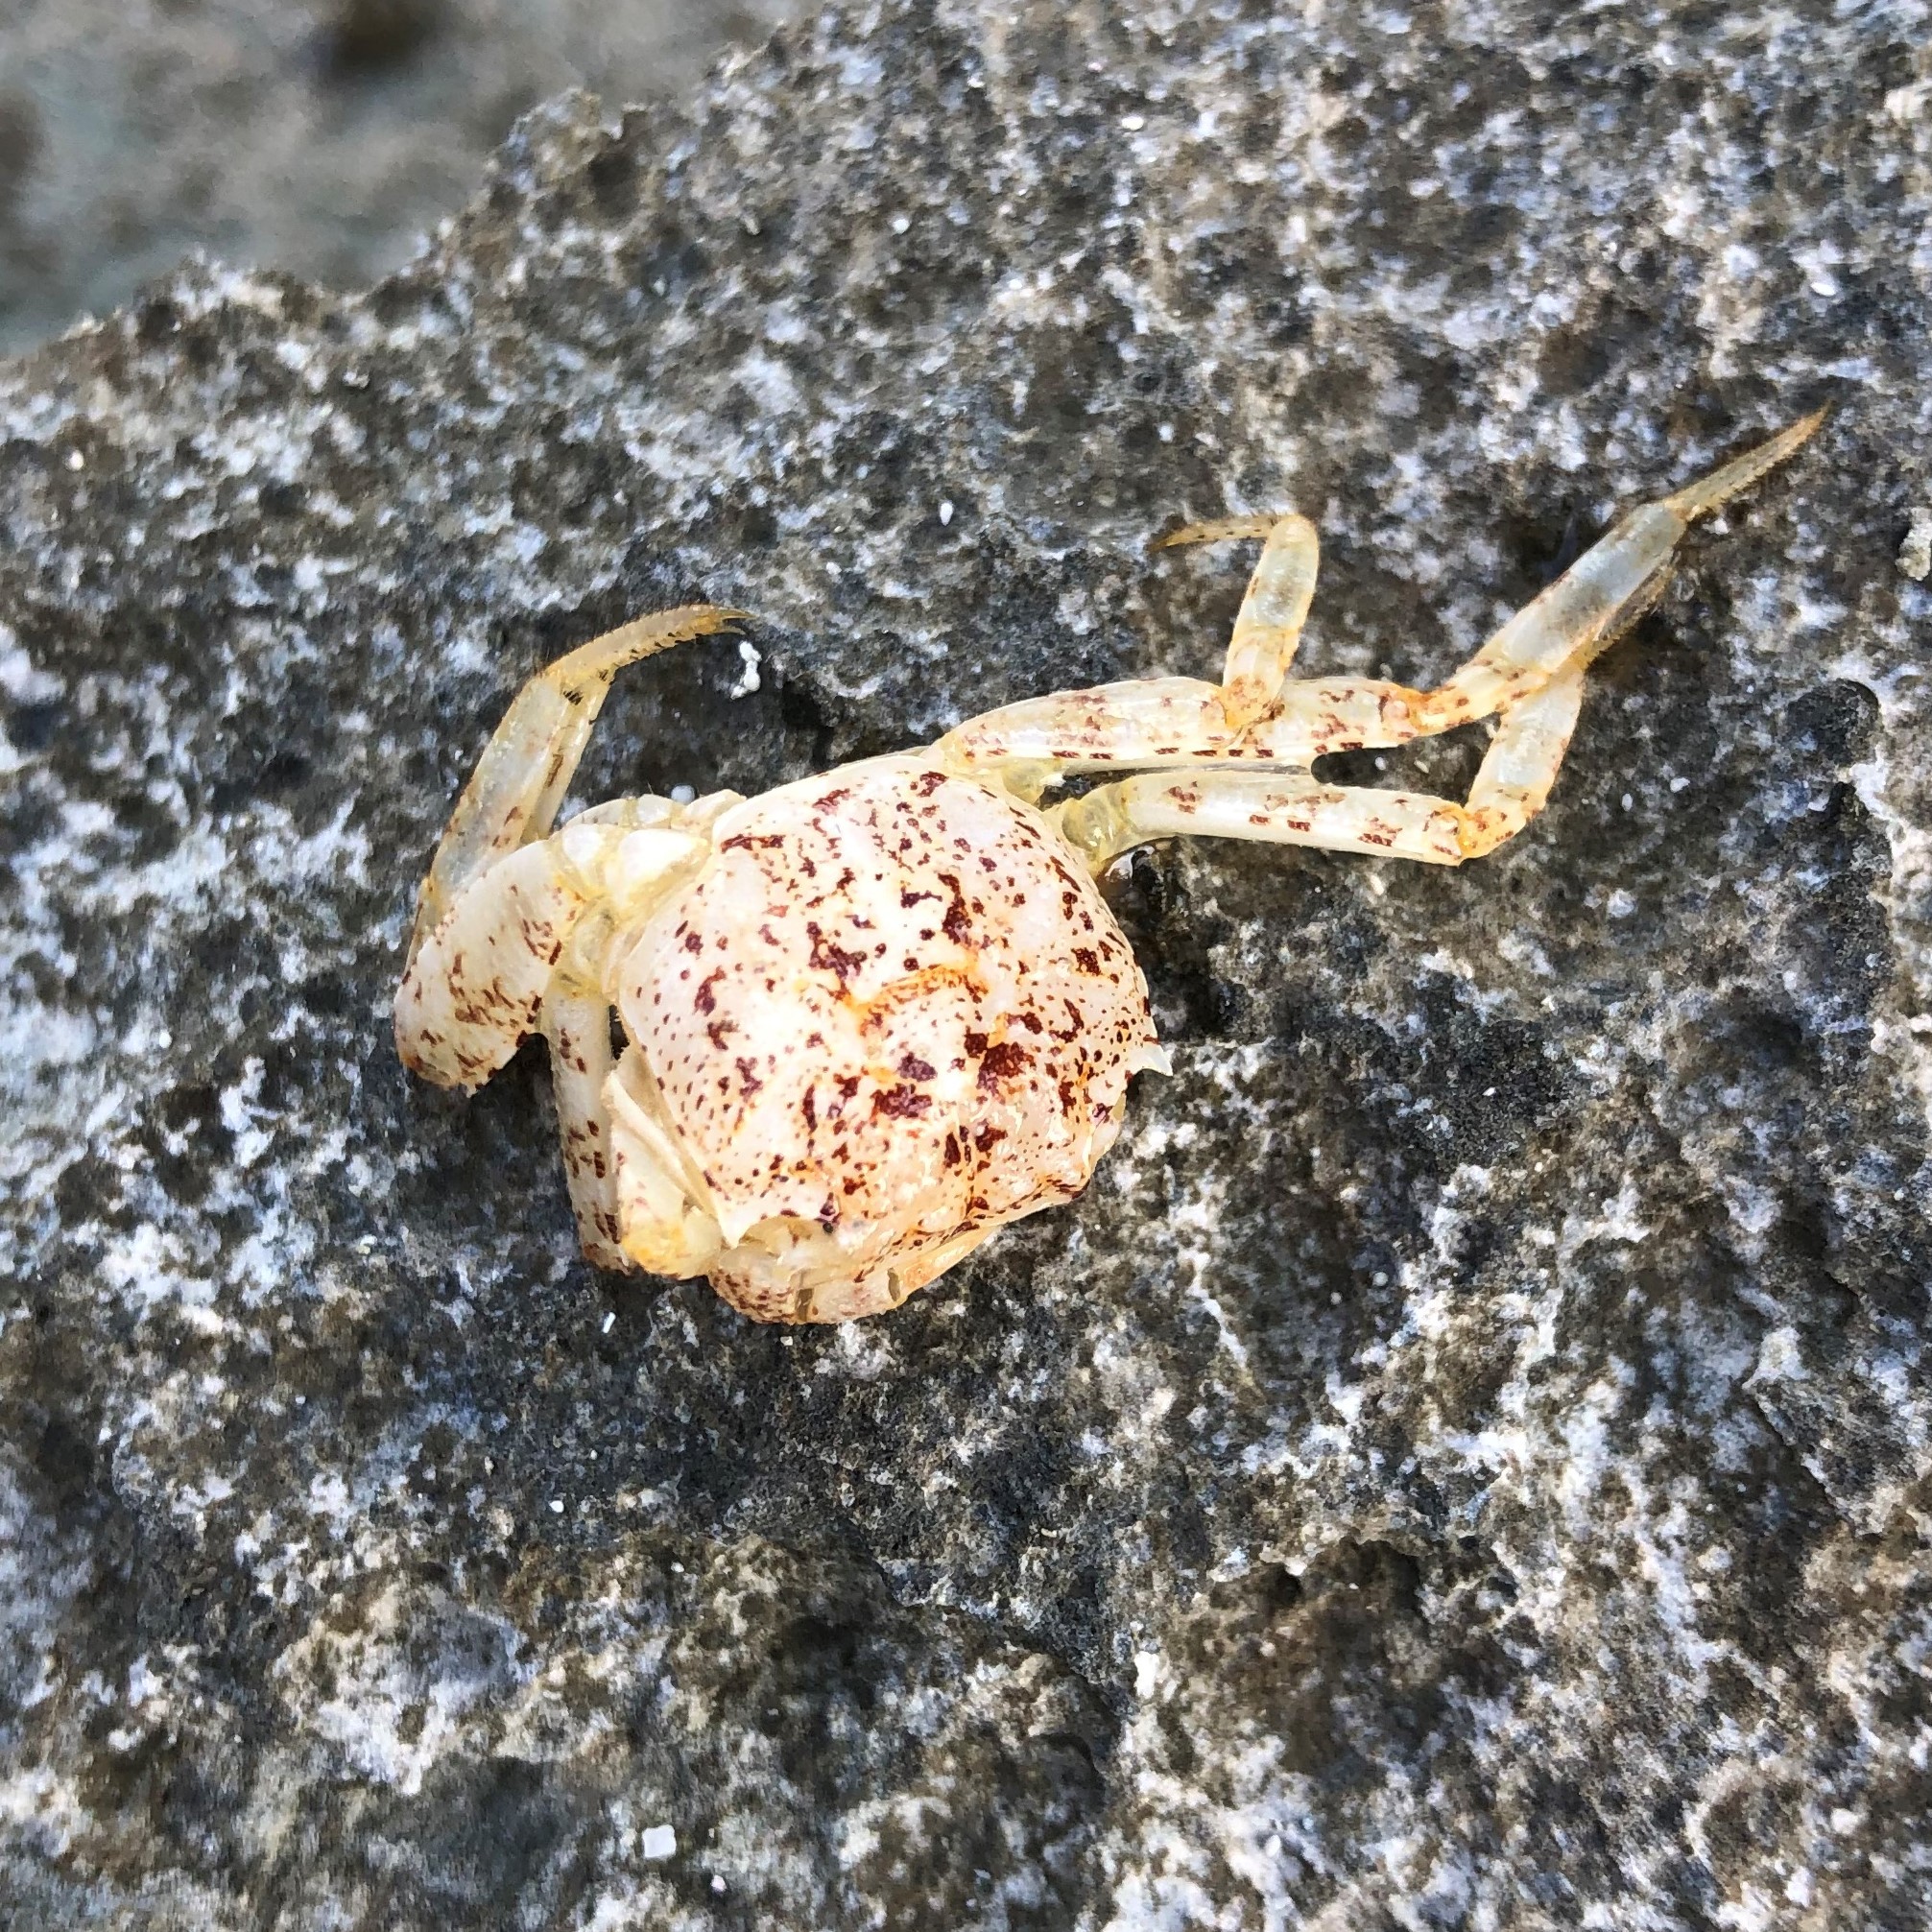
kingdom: Animalia
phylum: Arthropoda
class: Malacostraca
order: Decapoda
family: Grapsidae
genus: Grapsus
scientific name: Grapsus grapsus
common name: Sally lightfoot
